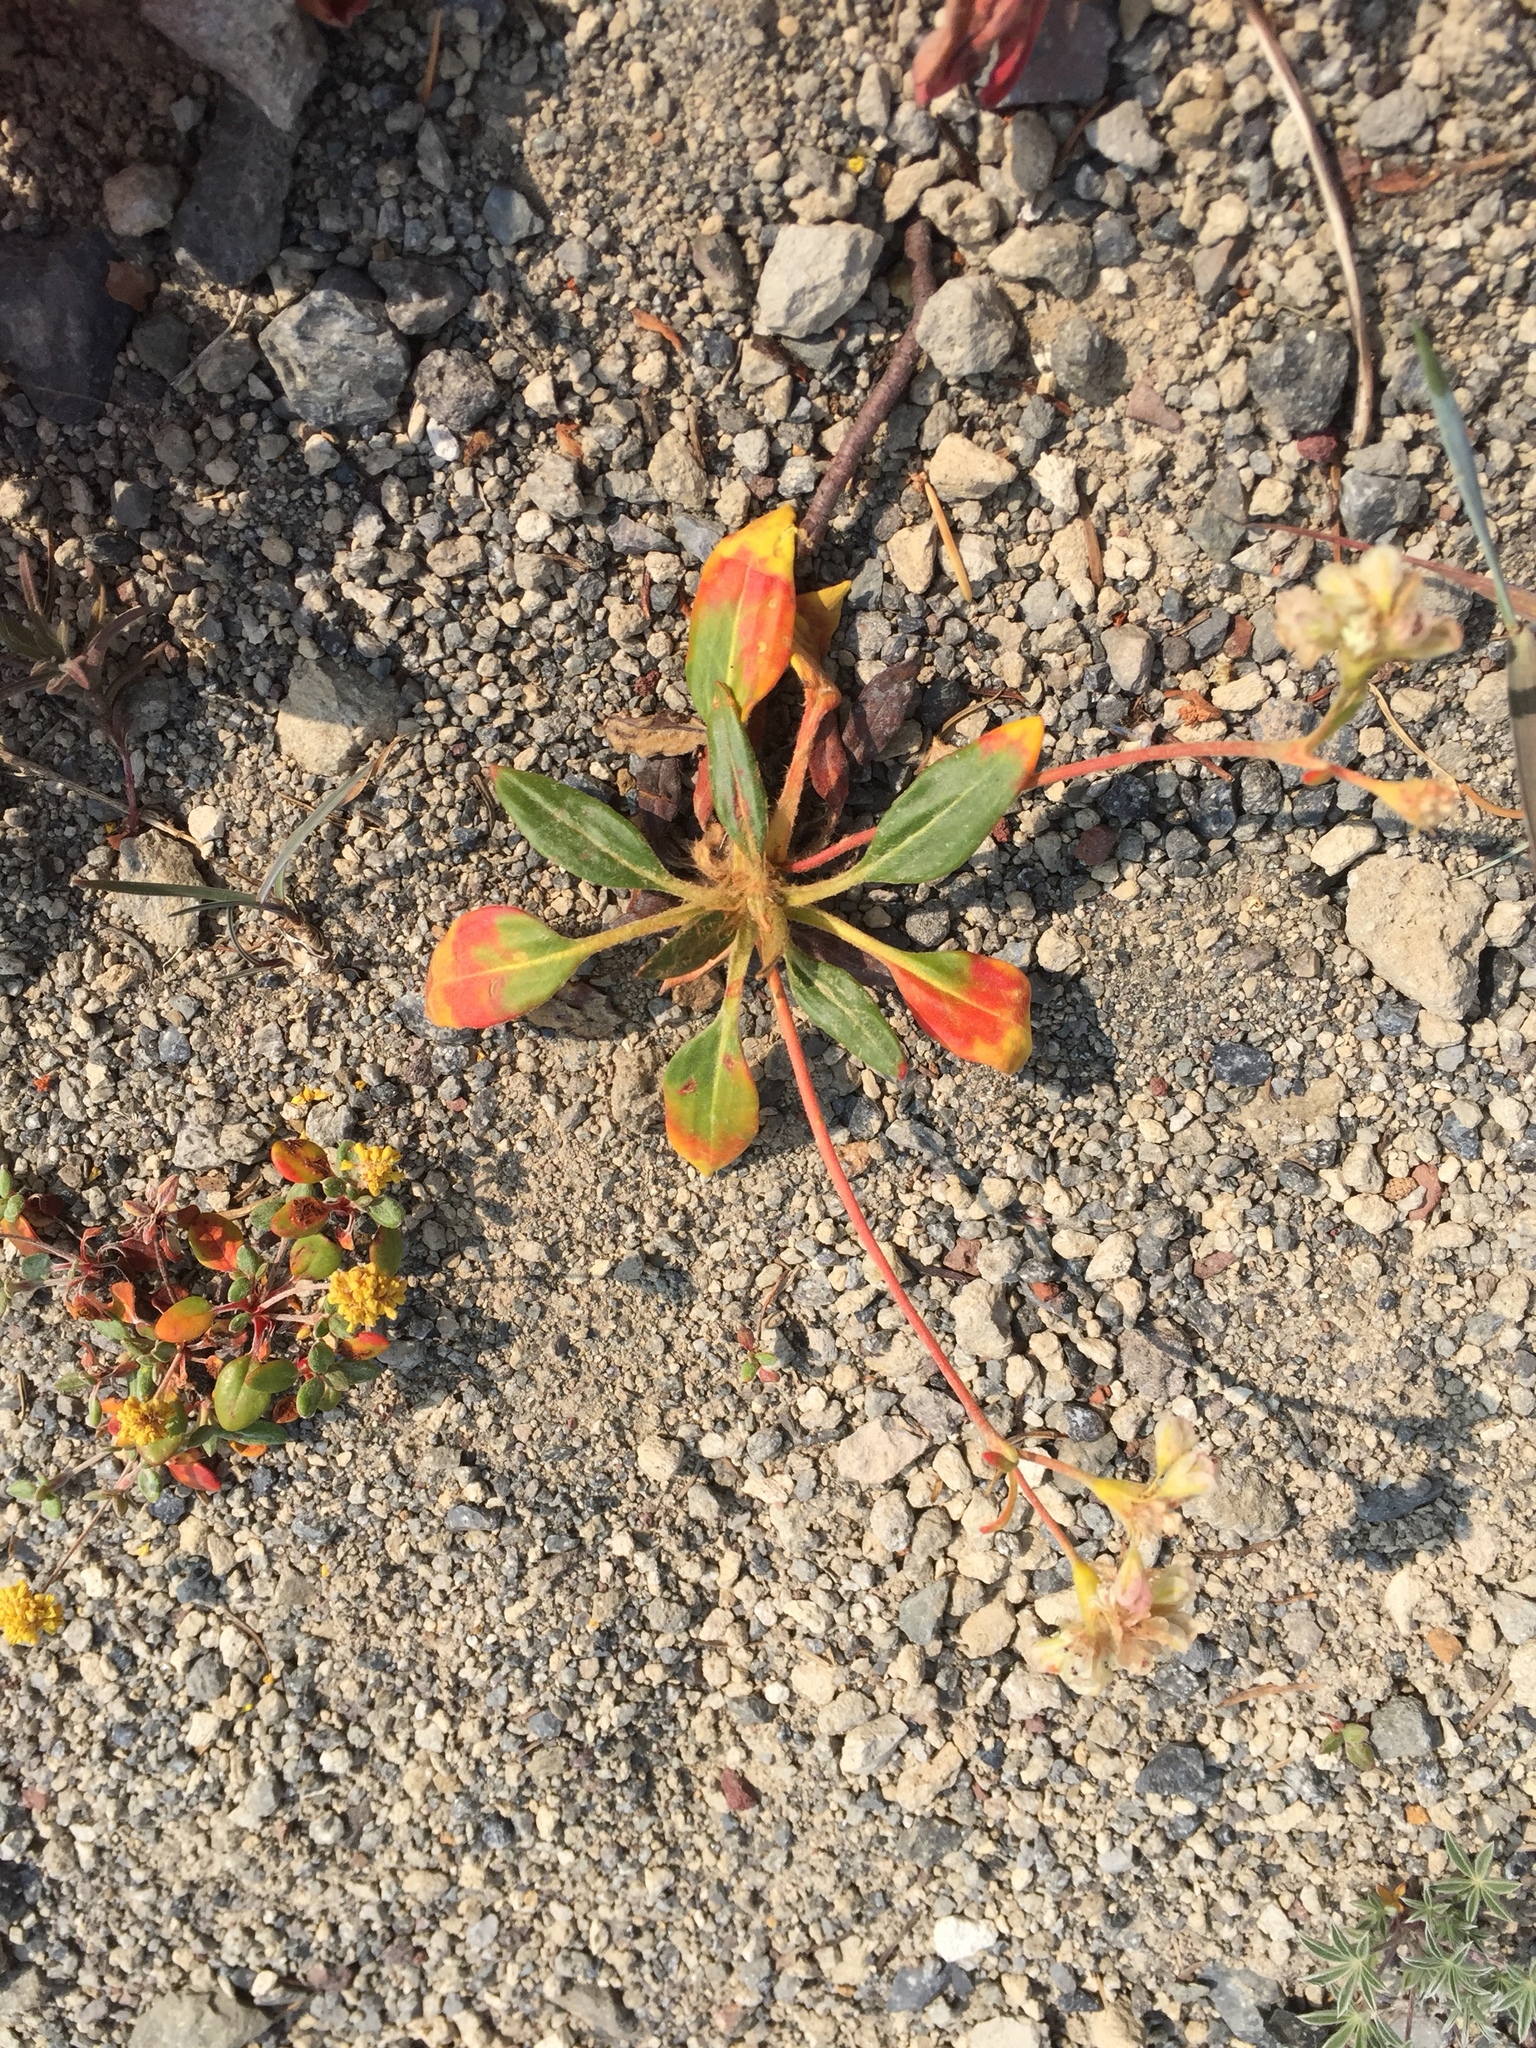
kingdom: Plantae
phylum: Tracheophyta
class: Magnoliopsida
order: Caryophyllales
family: Polygonaceae
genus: Eriogonum
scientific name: Eriogonum pyrolifolium
